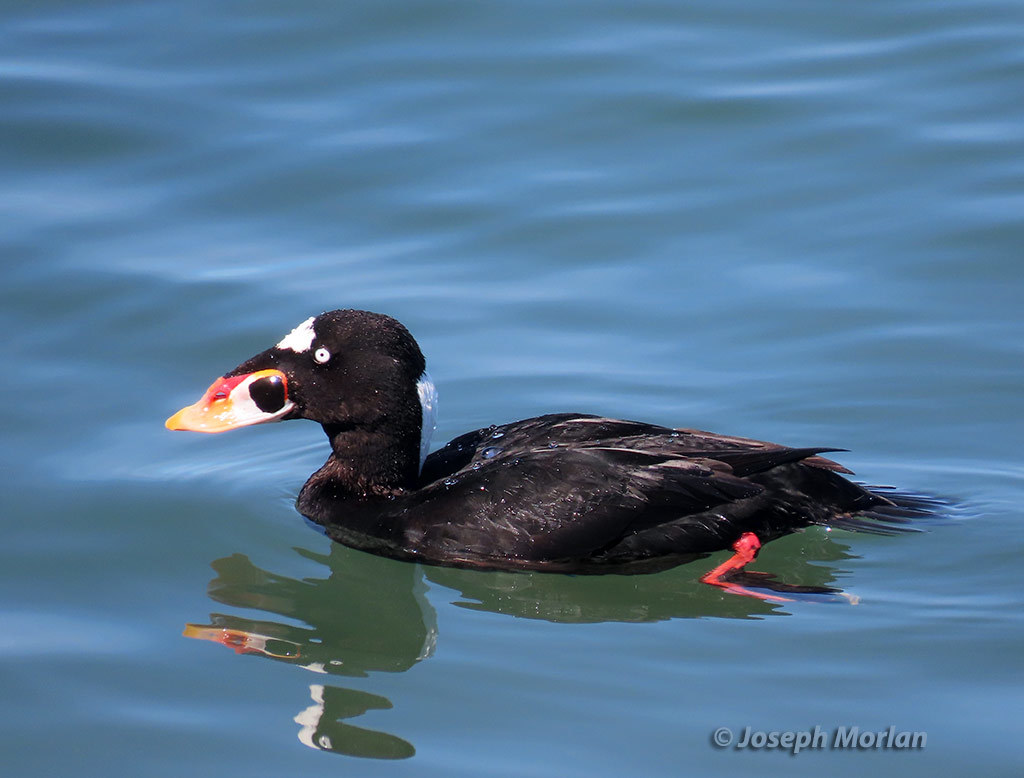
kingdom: Animalia
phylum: Chordata
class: Aves
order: Anseriformes
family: Anatidae
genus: Melanitta
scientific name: Melanitta perspicillata
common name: Surf scoter
